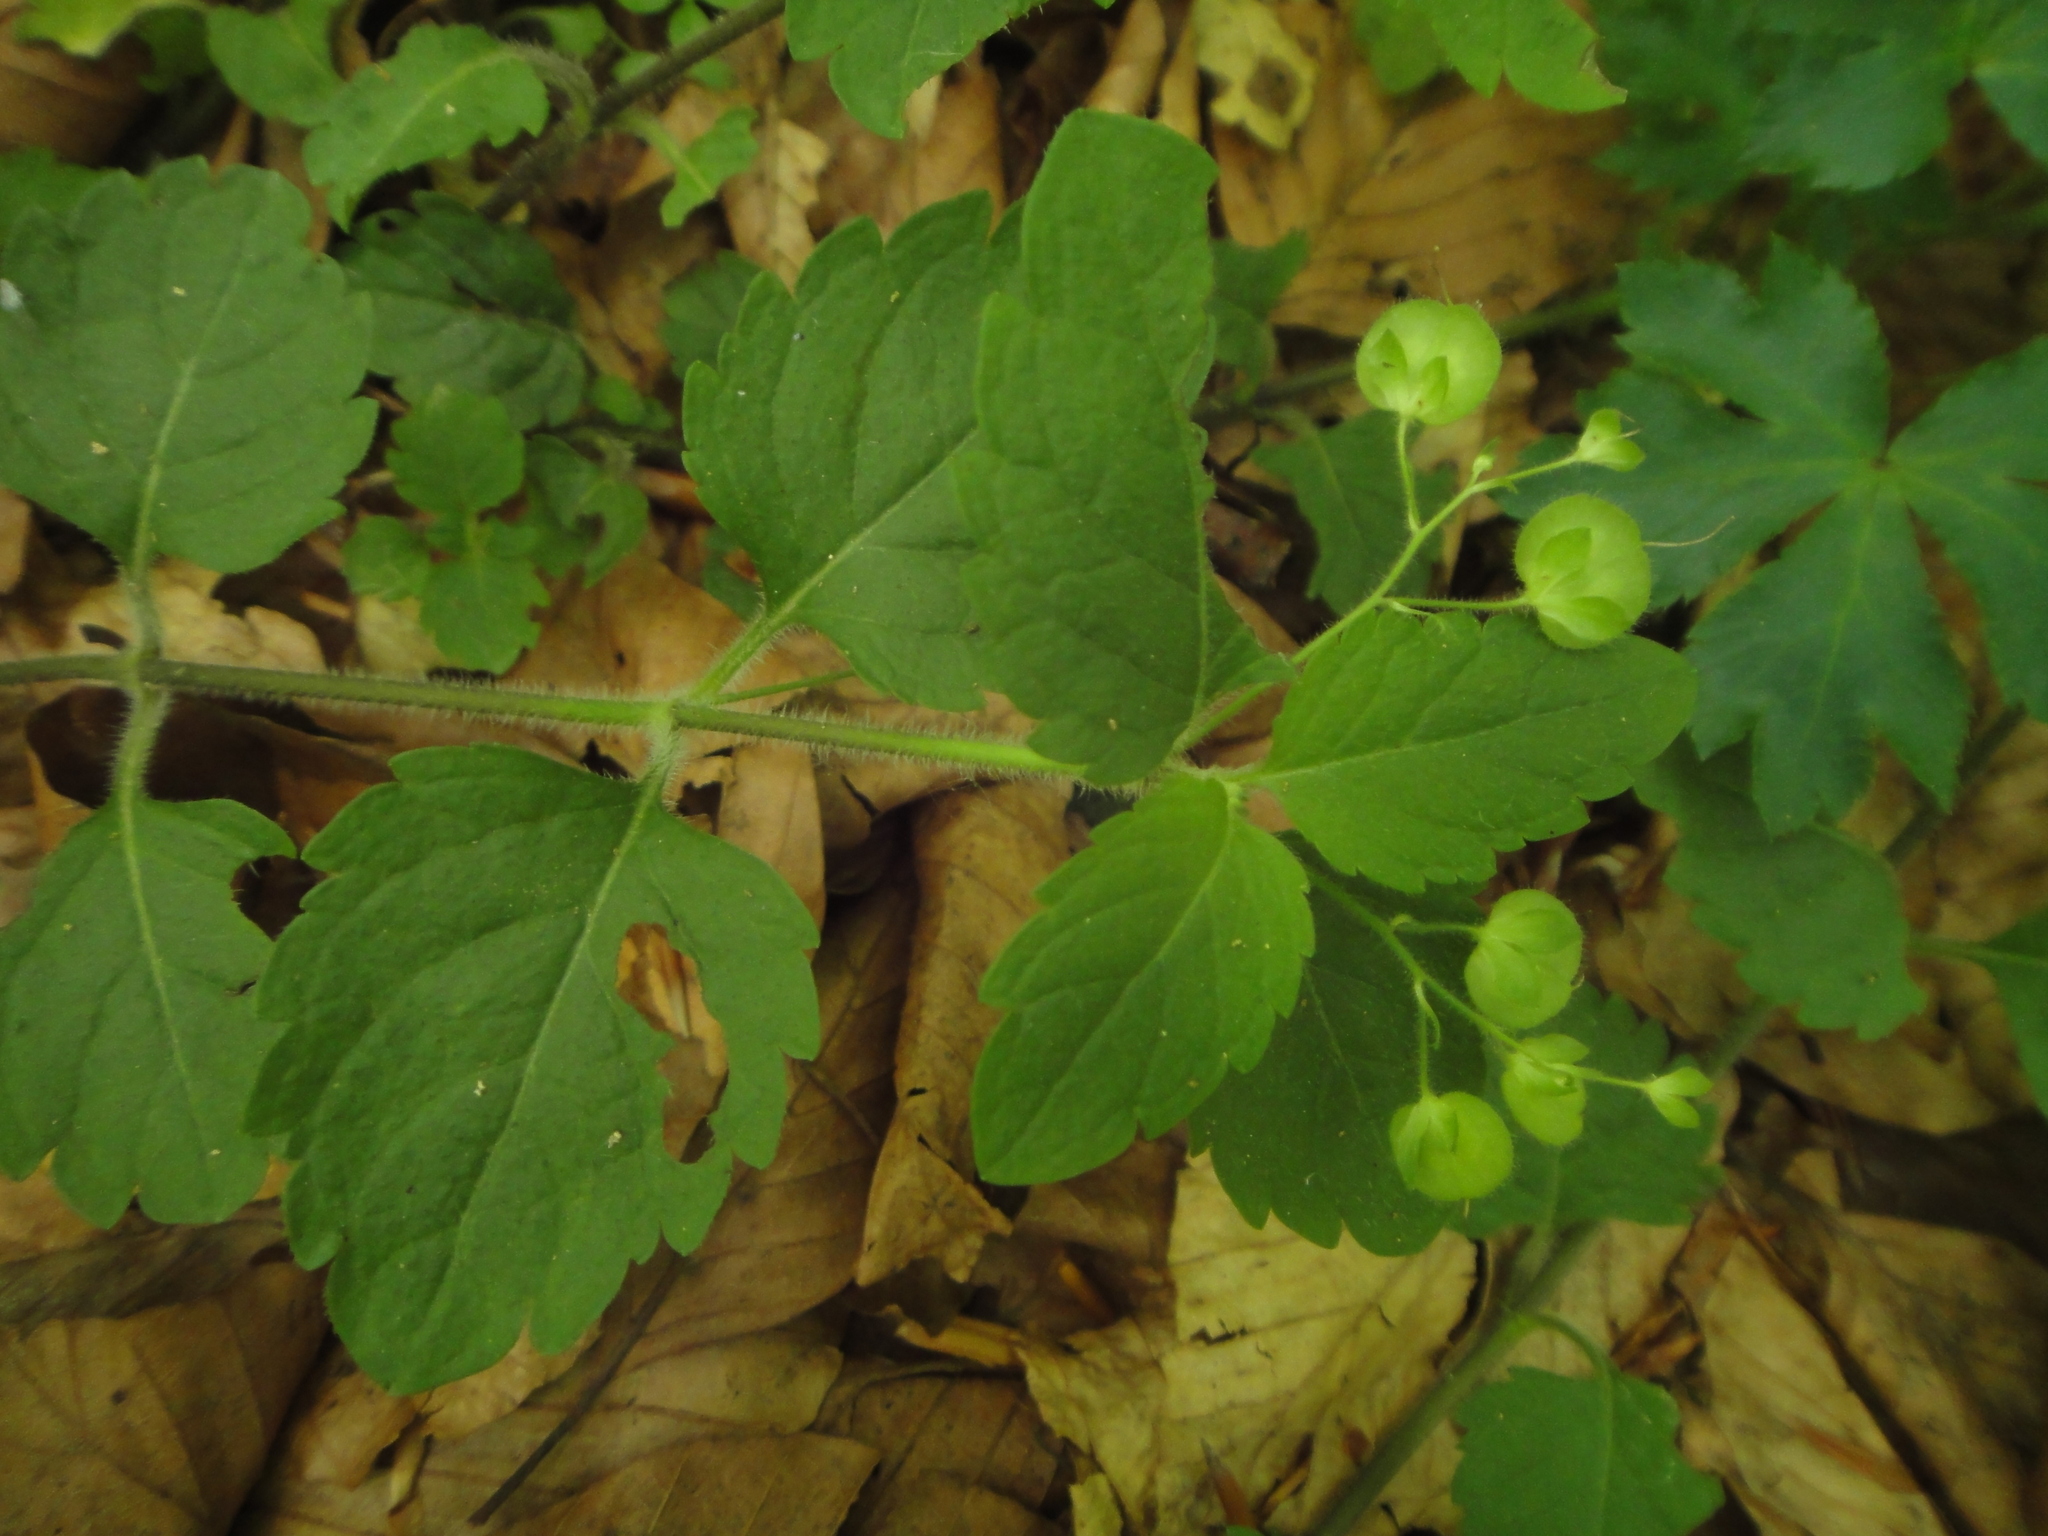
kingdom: Plantae
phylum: Tracheophyta
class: Magnoliopsida
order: Lamiales
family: Plantaginaceae
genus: Veronica
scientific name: Veronica montana
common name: Wood speedwell
